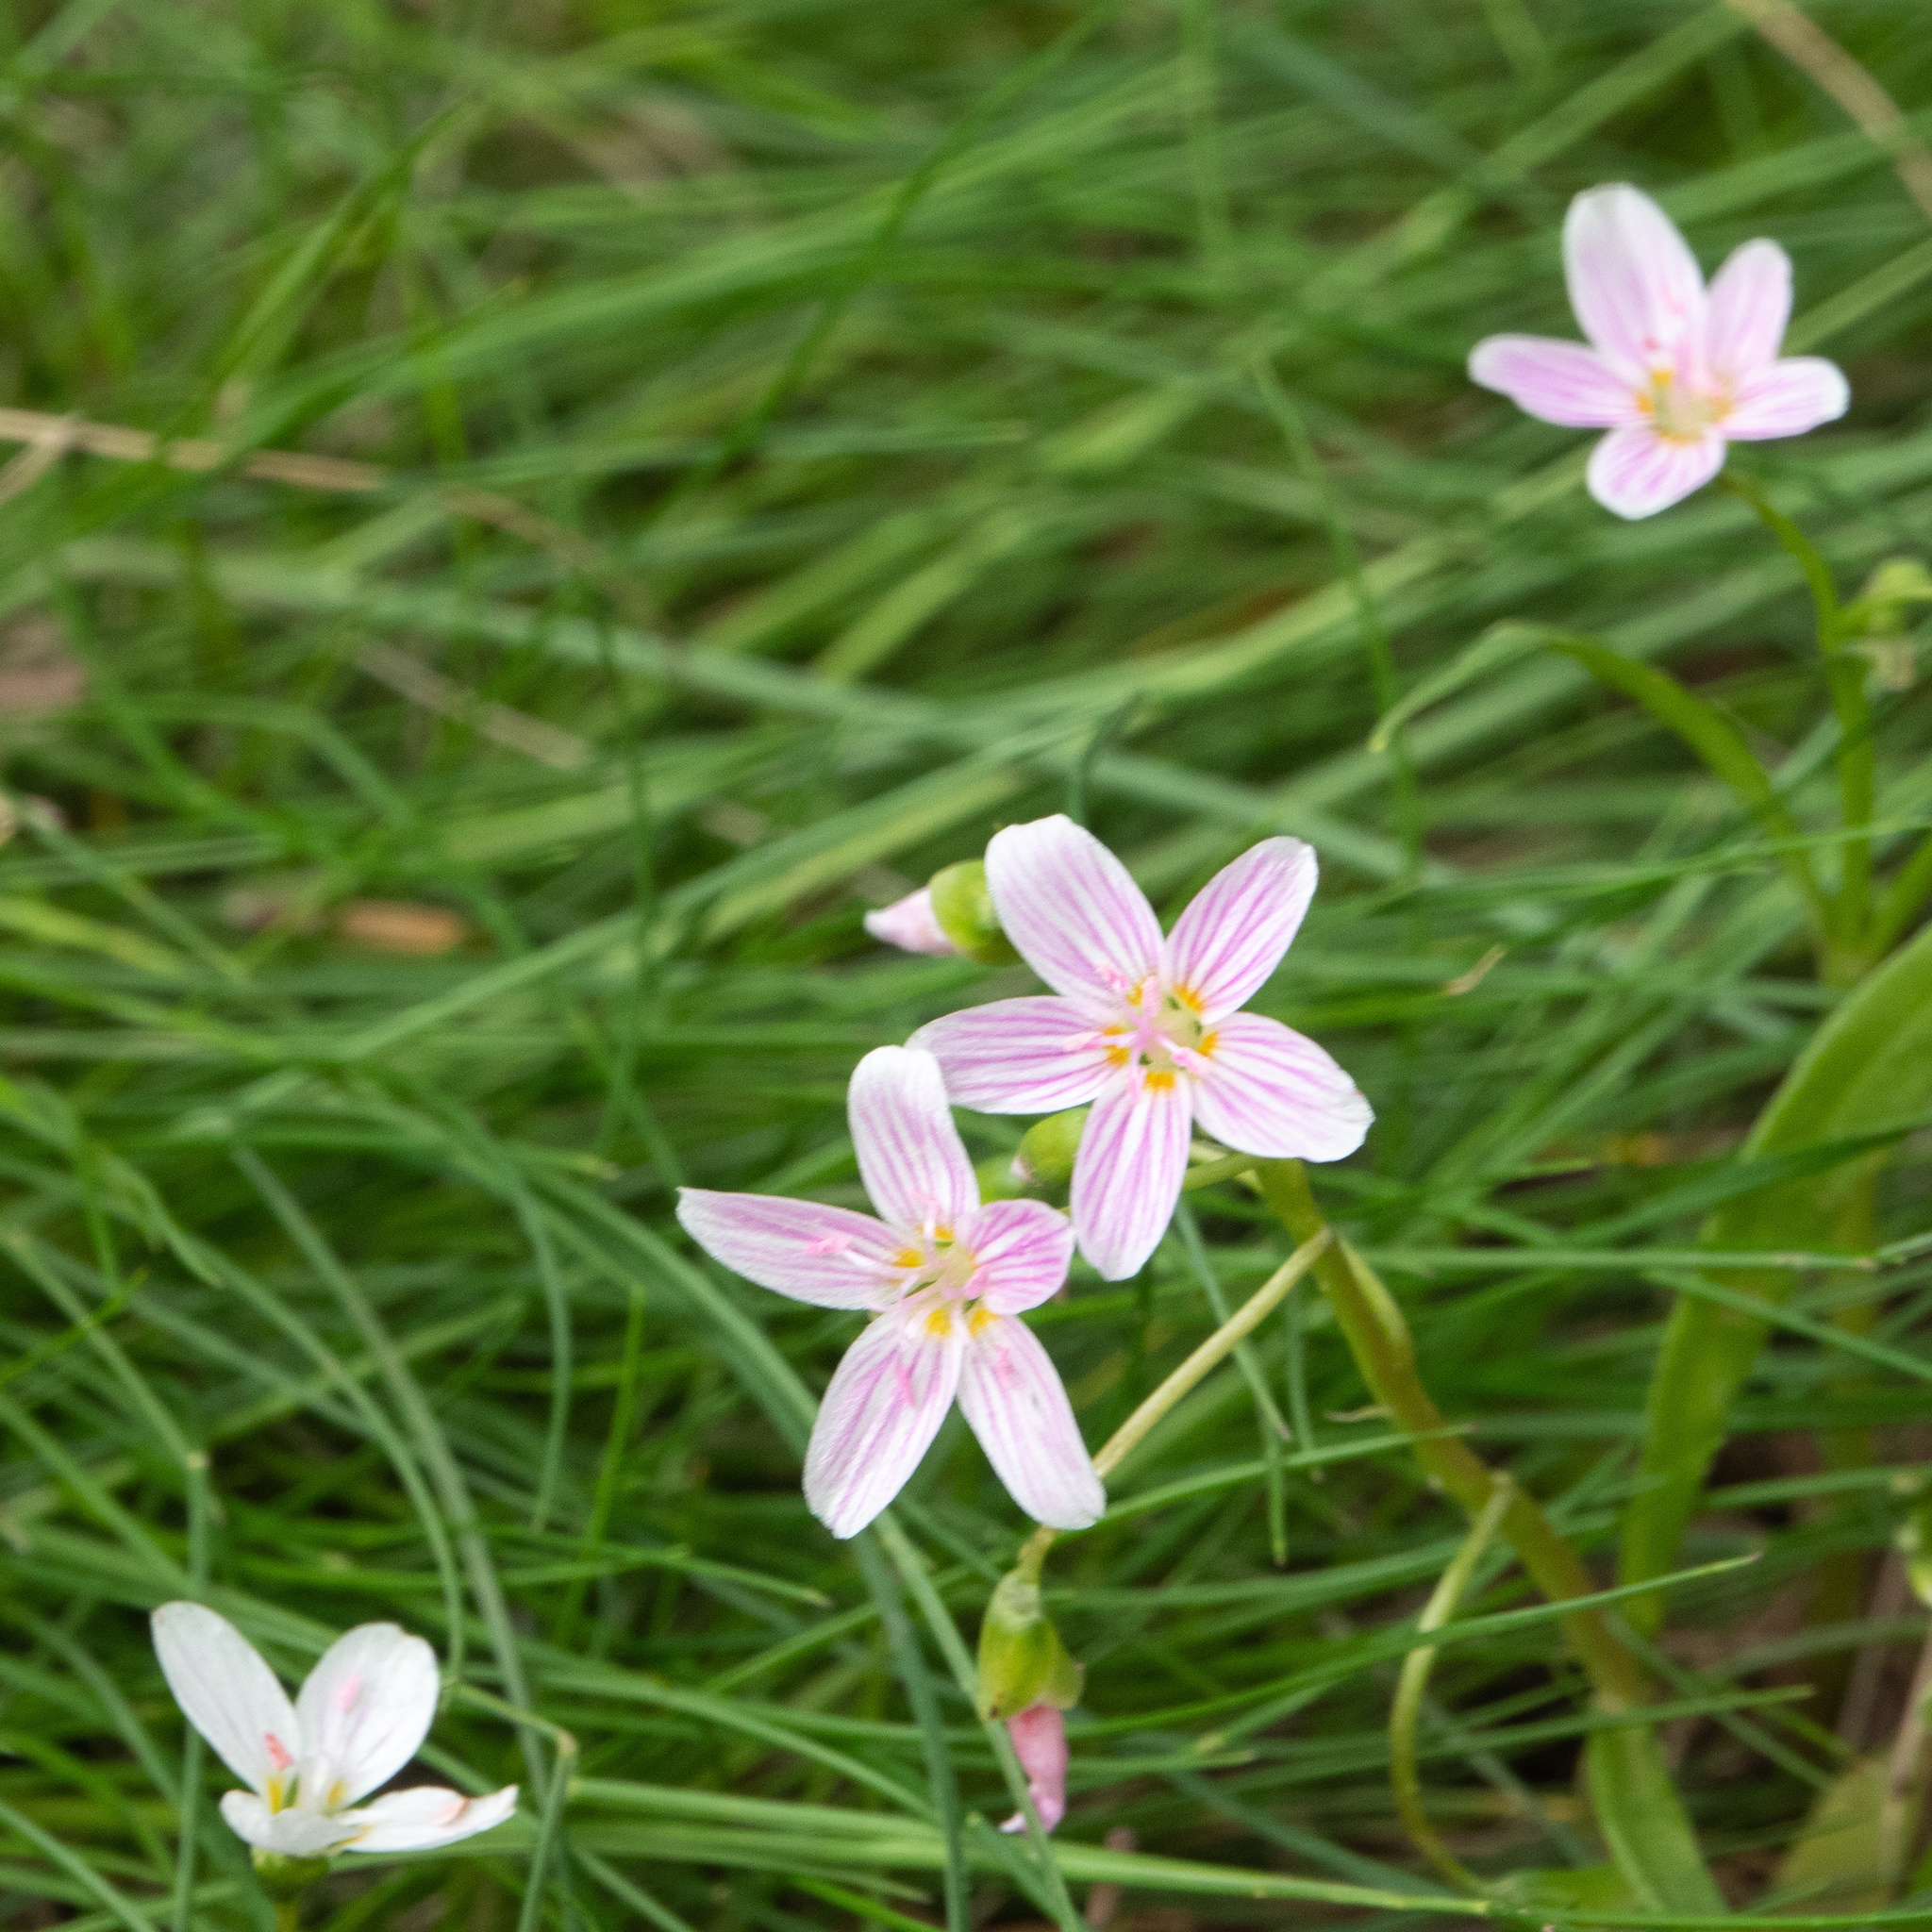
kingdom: Plantae
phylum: Tracheophyta
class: Magnoliopsida
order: Caryophyllales
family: Montiaceae
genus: Claytonia
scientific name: Claytonia virginica
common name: Virginia springbeauty
